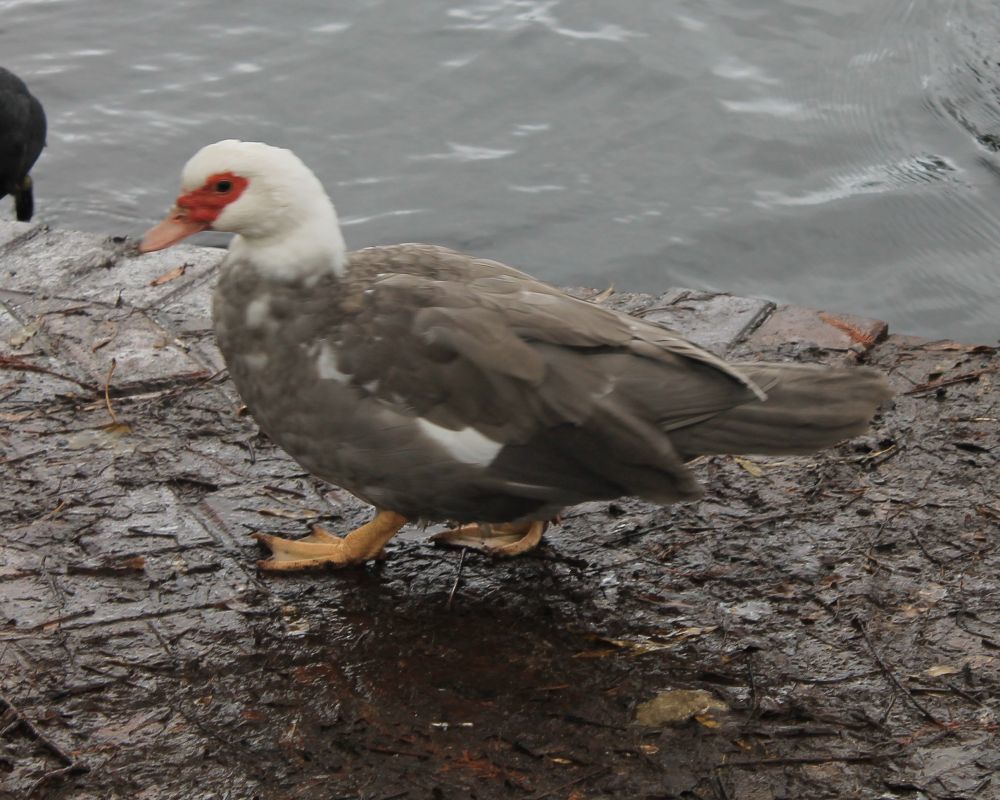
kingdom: Animalia
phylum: Chordata
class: Aves
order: Anseriformes
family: Anatidae
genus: Cairina
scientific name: Cairina moschata
